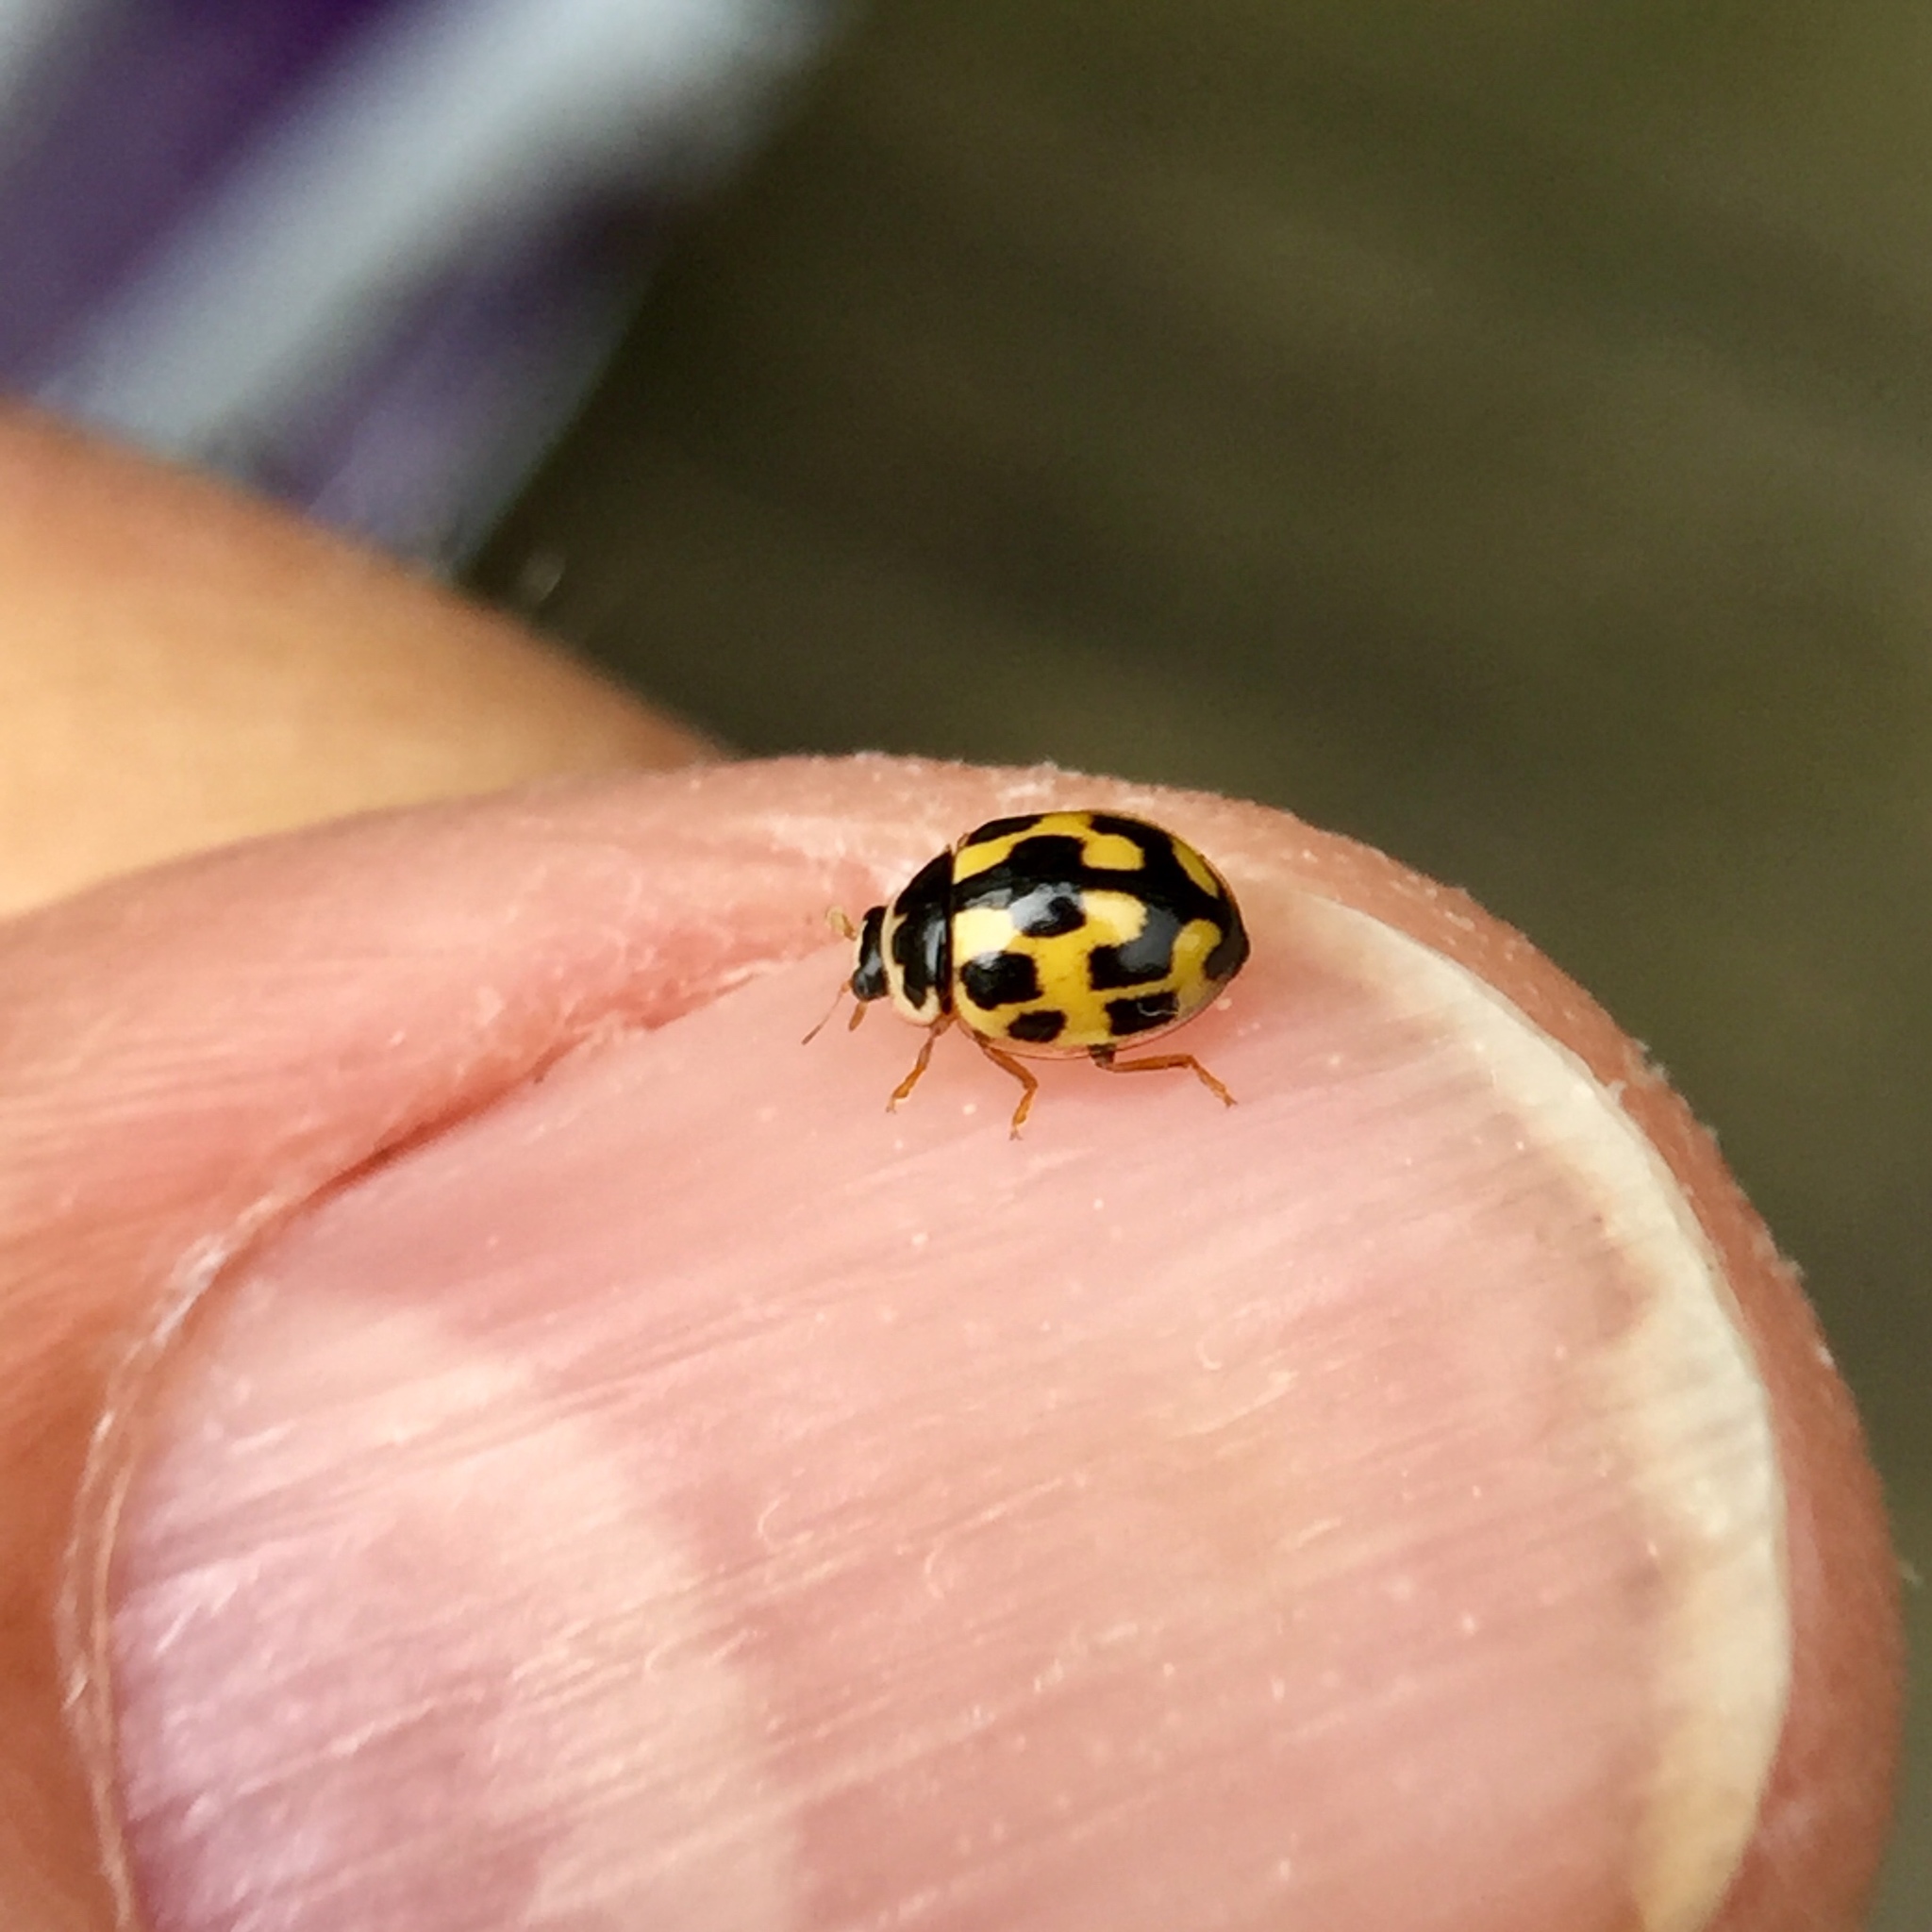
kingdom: Animalia
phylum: Arthropoda
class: Insecta
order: Coleoptera
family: Coccinellidae
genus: Propylaea
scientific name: Propylaea quatuordecimpunctata
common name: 14-spotted ladybird beetle
